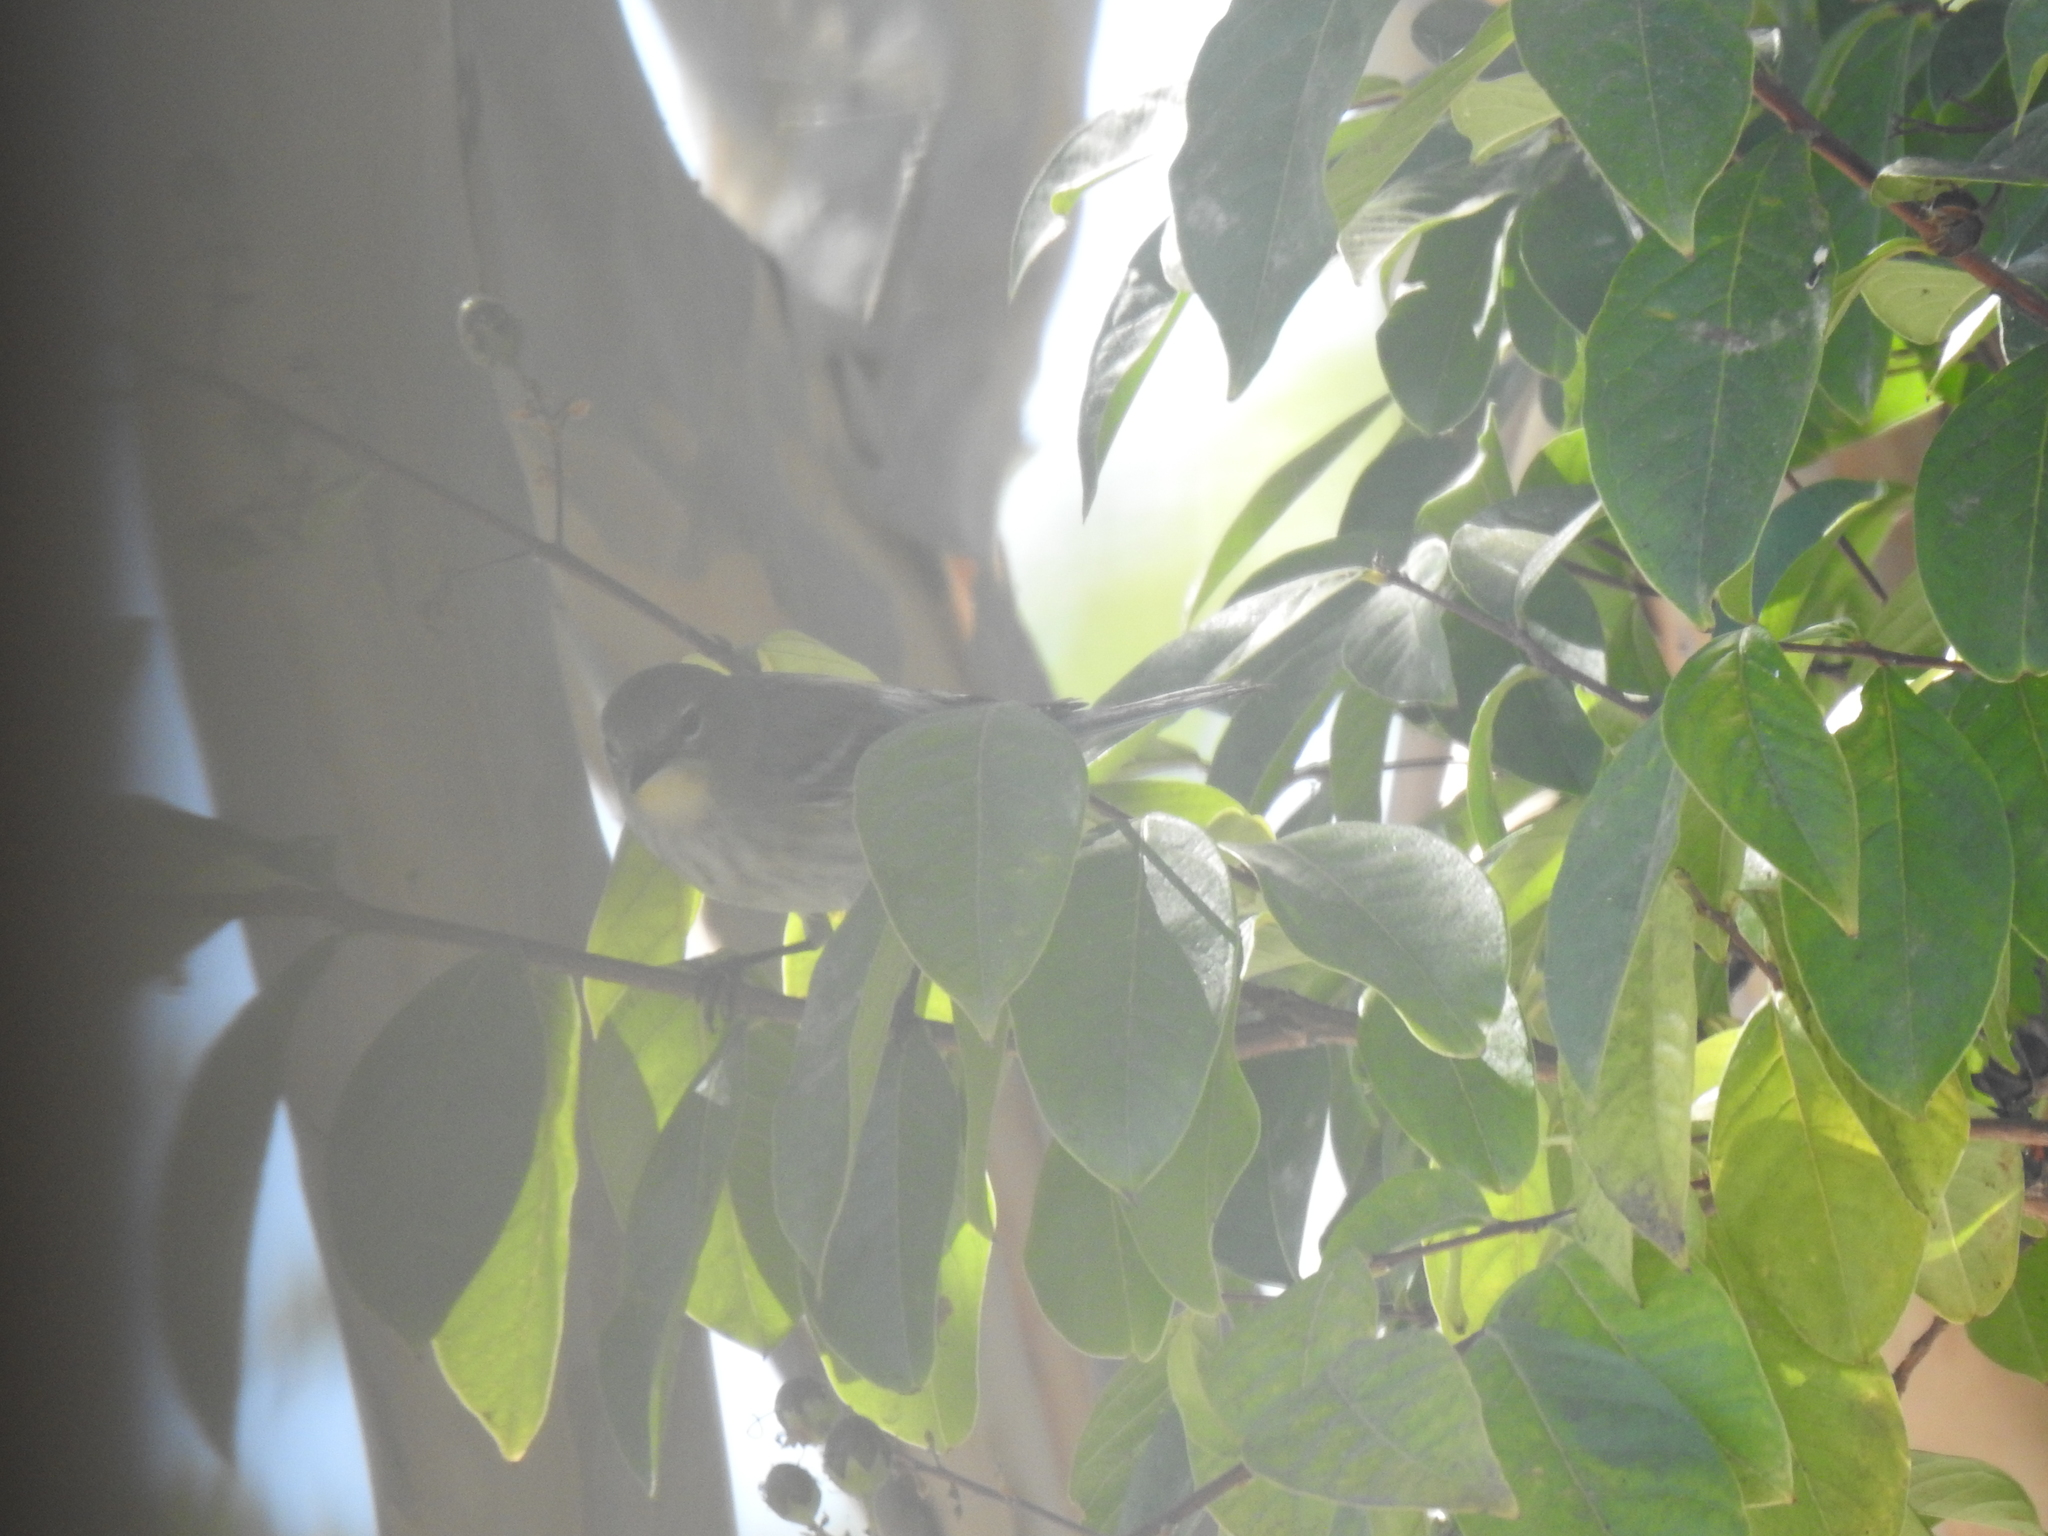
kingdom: Animalia
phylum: Chordata
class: Aves
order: Passeriformes
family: Parulidae
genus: Setophaga
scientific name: Setophaga coronata
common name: Myrtle warbler
